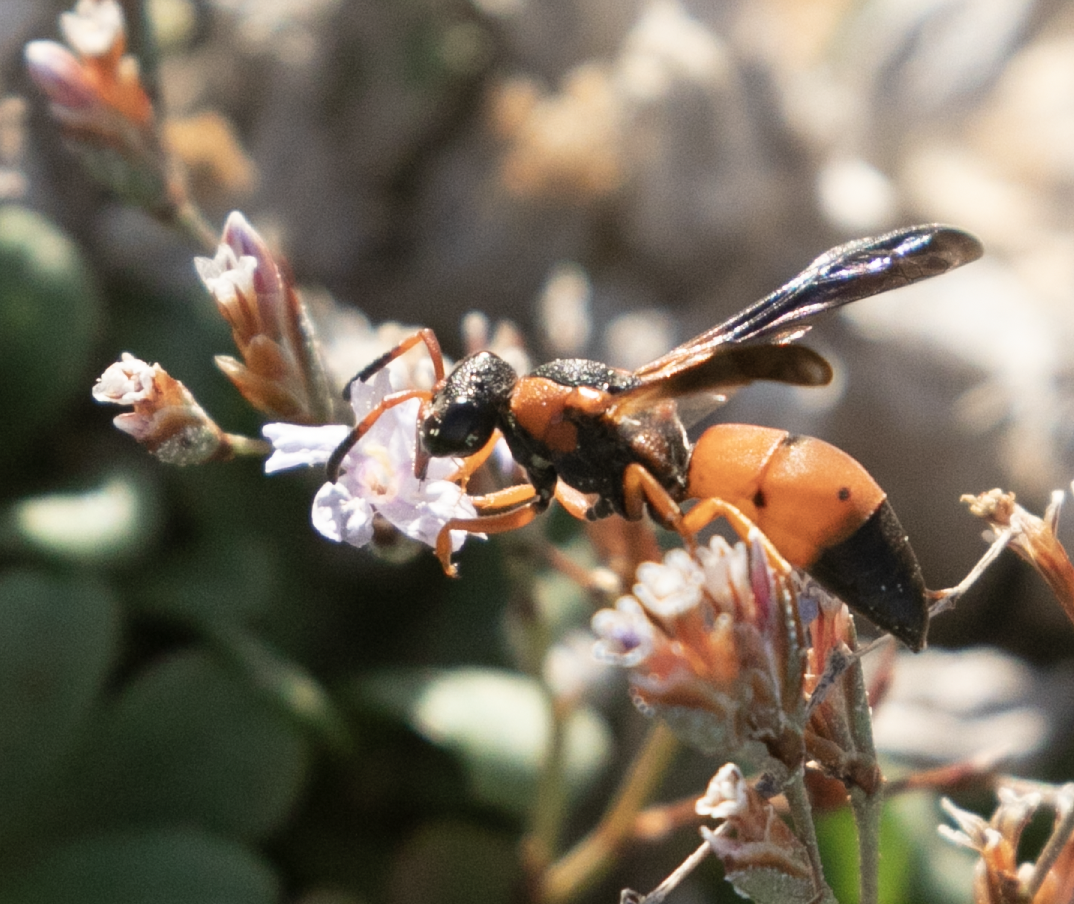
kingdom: Animalia
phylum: Arthropoda
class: Insecta
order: Hymenoptera
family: Vespidae
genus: Pseudepipona
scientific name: Pseudepipona tripunctata
